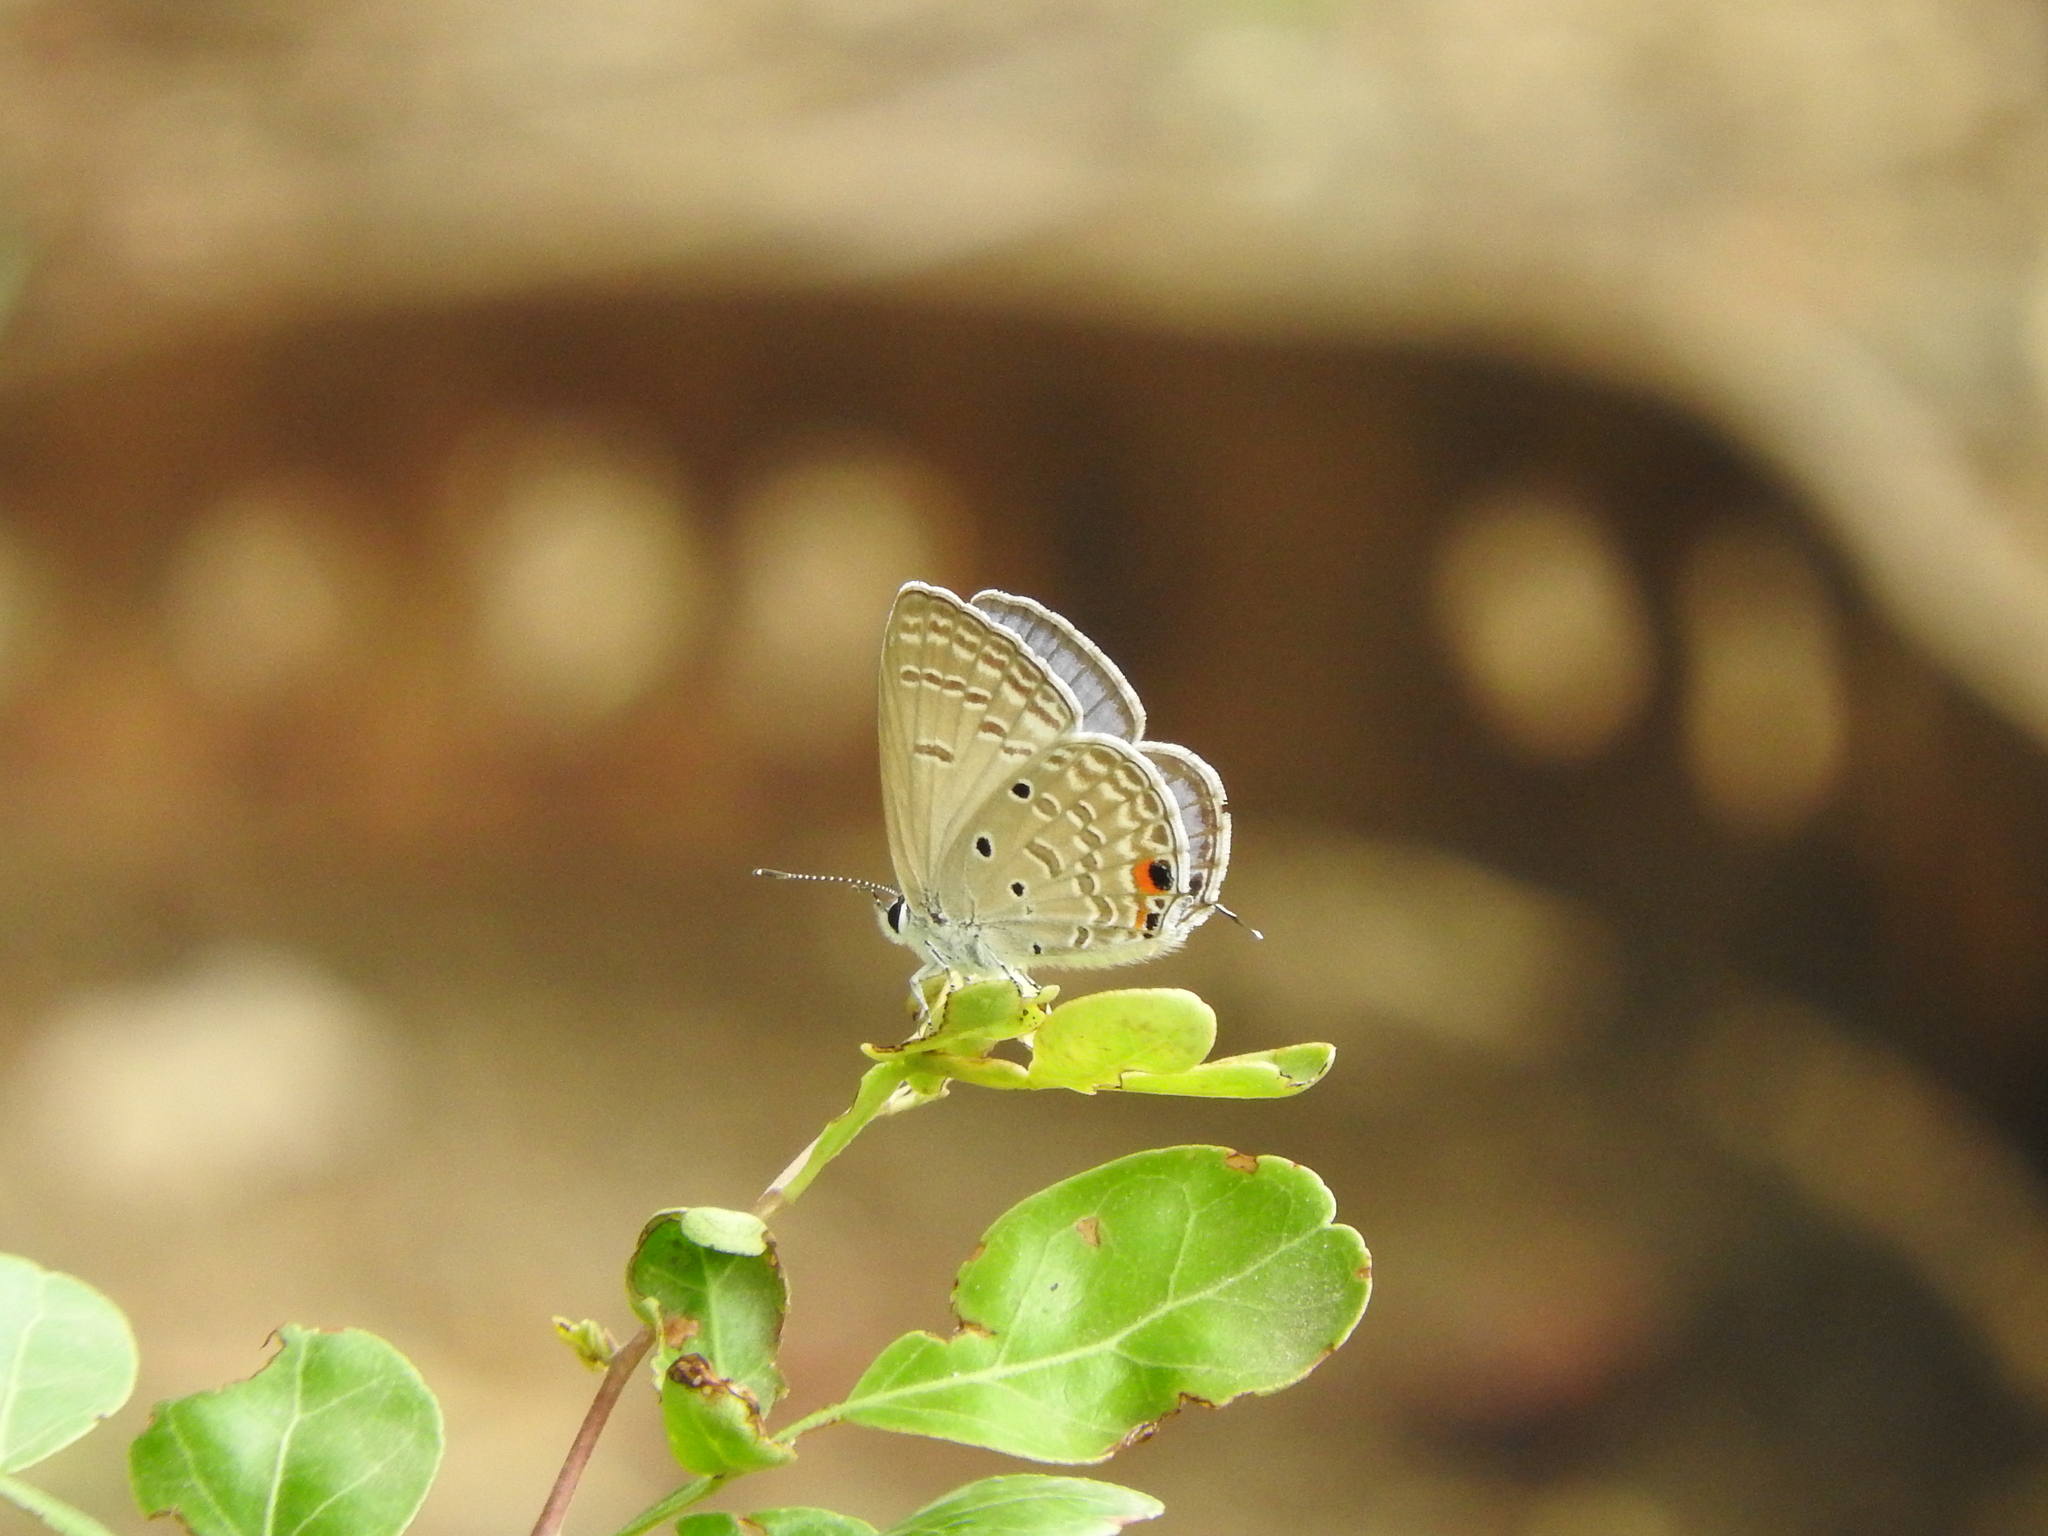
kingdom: Animalia
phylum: Arthropoda
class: Insecta
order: Lepidoptera
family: Lycaenidae
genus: Luthrodes
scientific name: Luthrodes pandava
